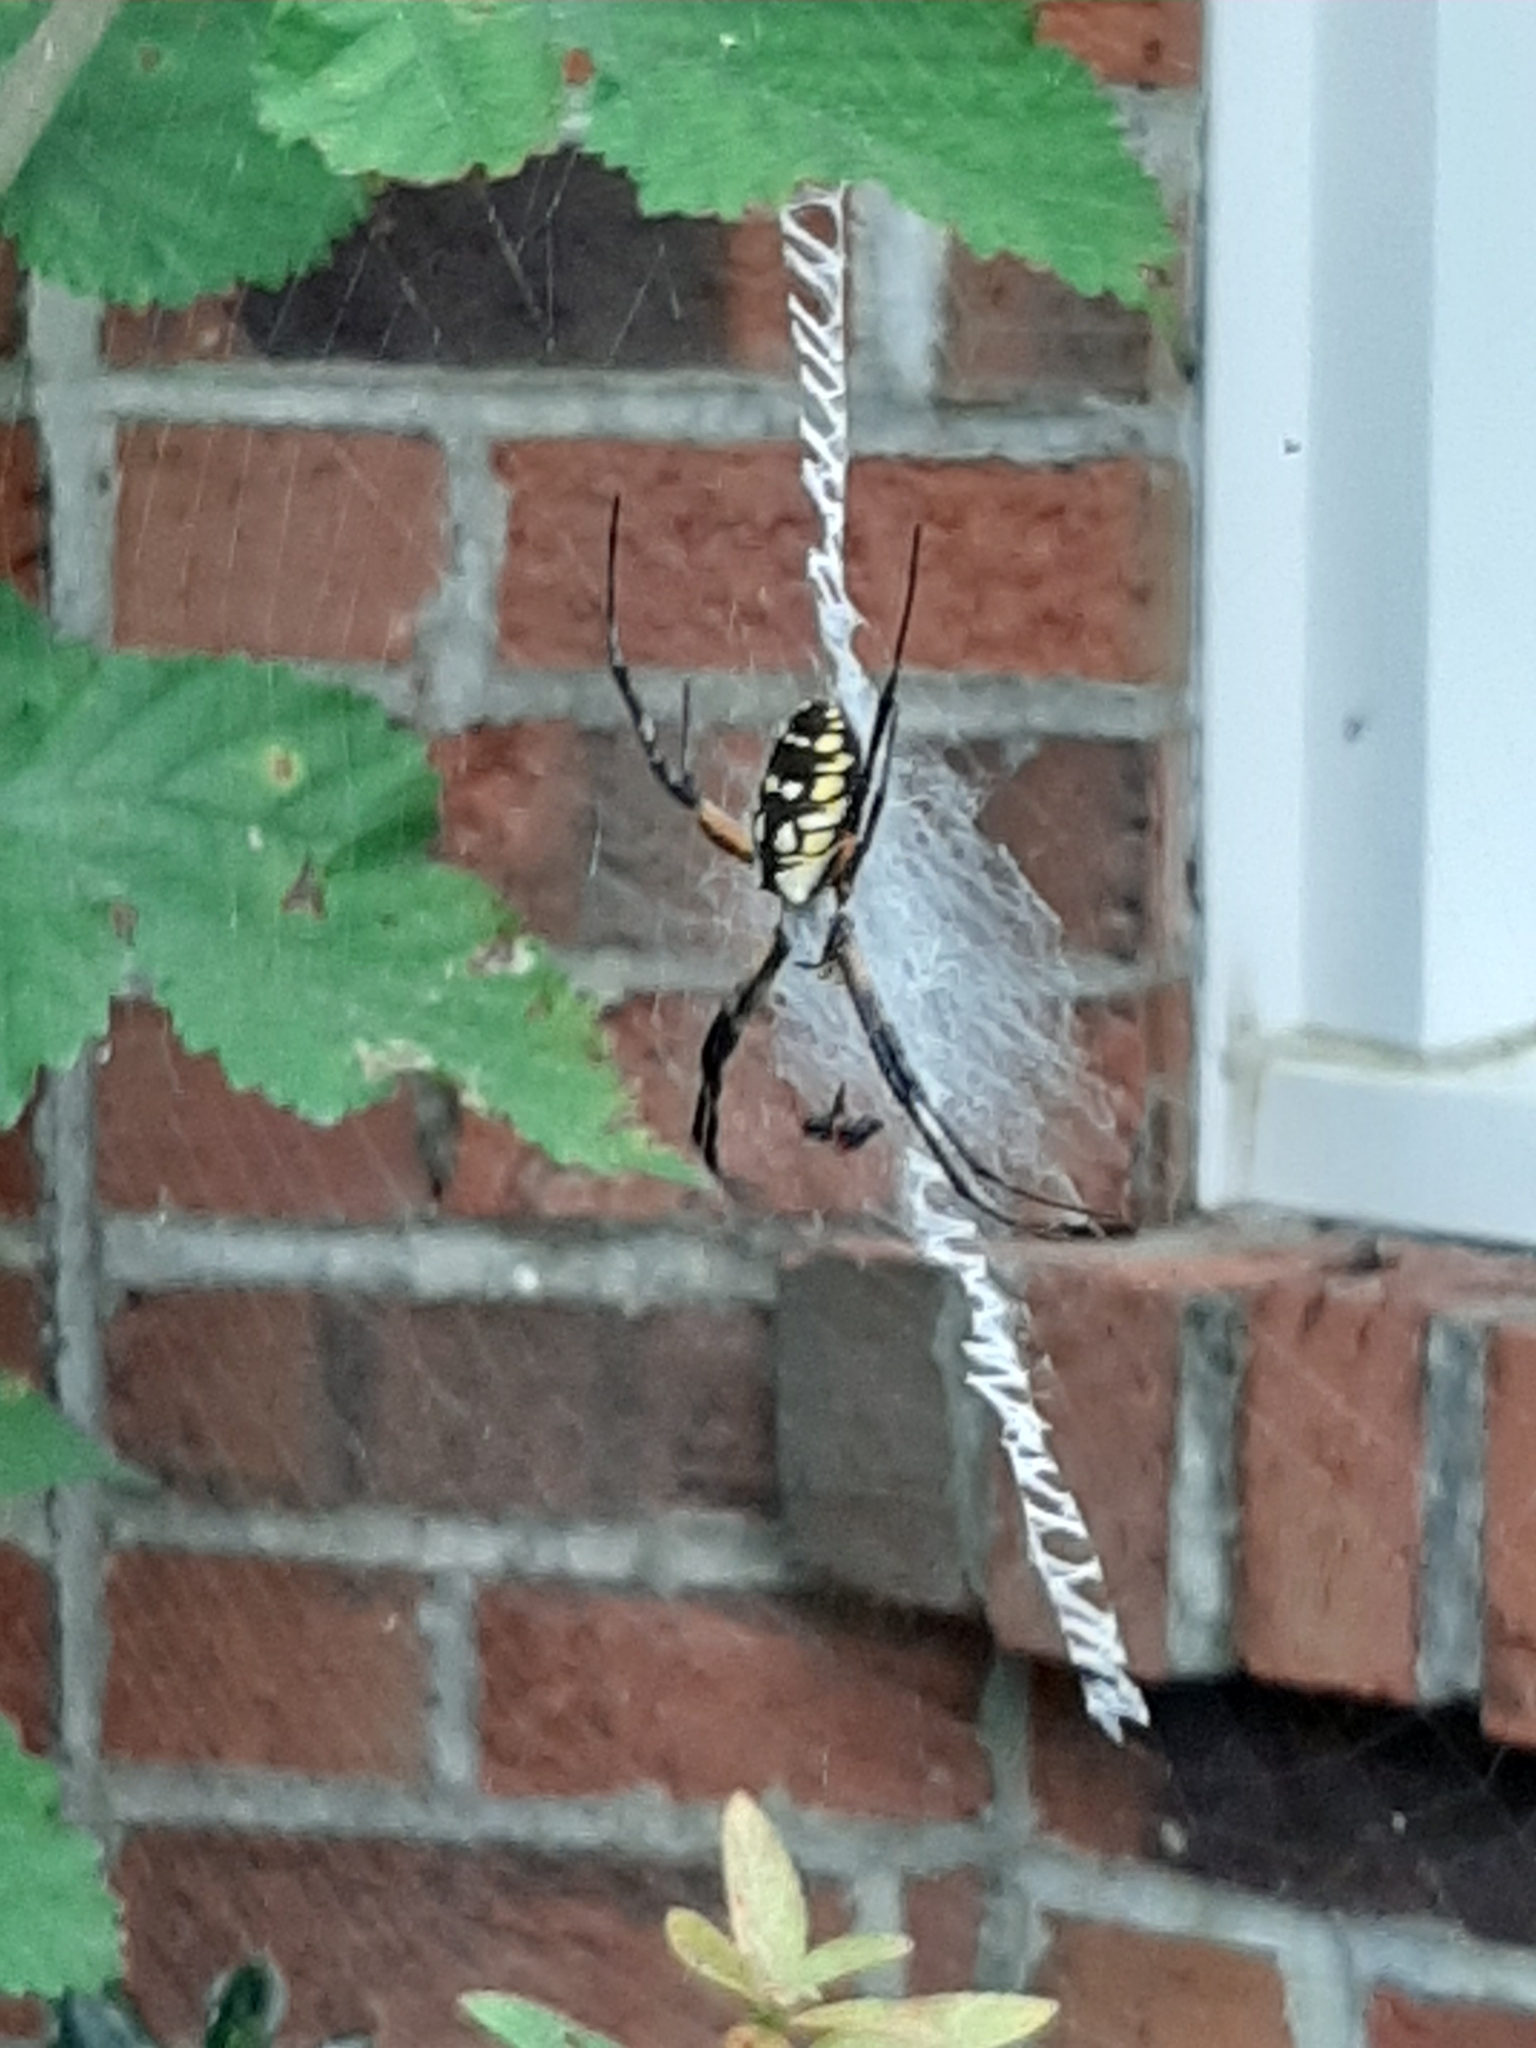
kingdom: Animalia
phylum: Arthropoda
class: Arachnida
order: Araneae
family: Araneidae
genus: Argiope
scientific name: Argiope aurantia
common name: Orb weavers
